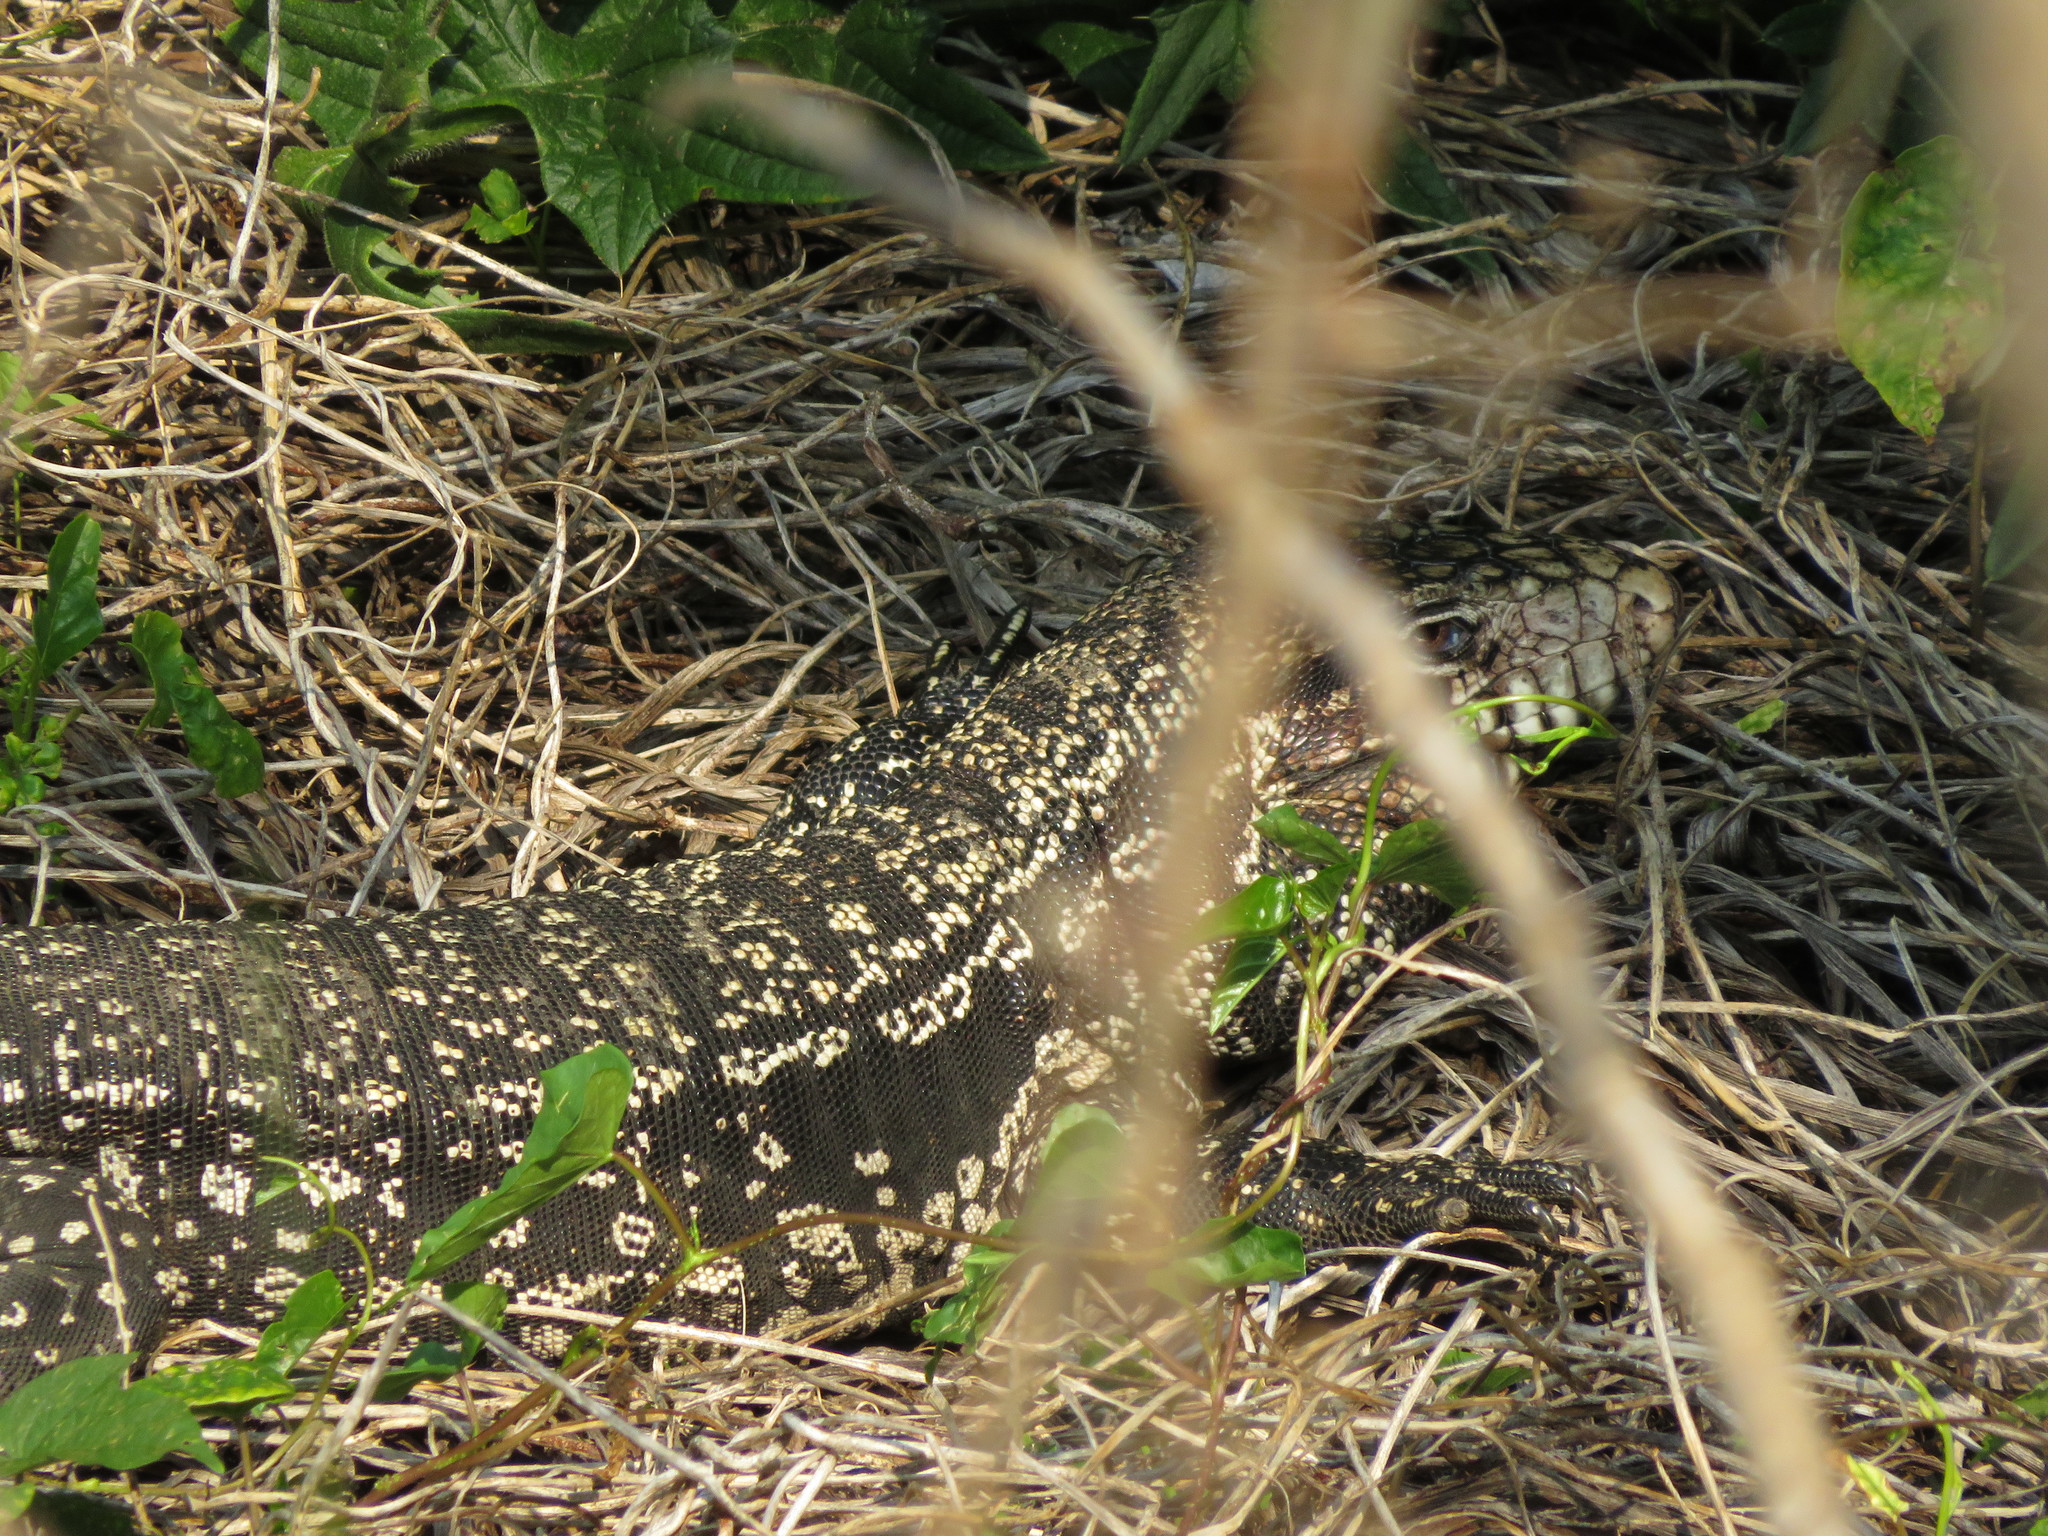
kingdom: Animalia
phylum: Chordata
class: Squamata
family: Teiidae
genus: Salvator
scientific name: Salvator merianae
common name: Argentine black and white tegu
